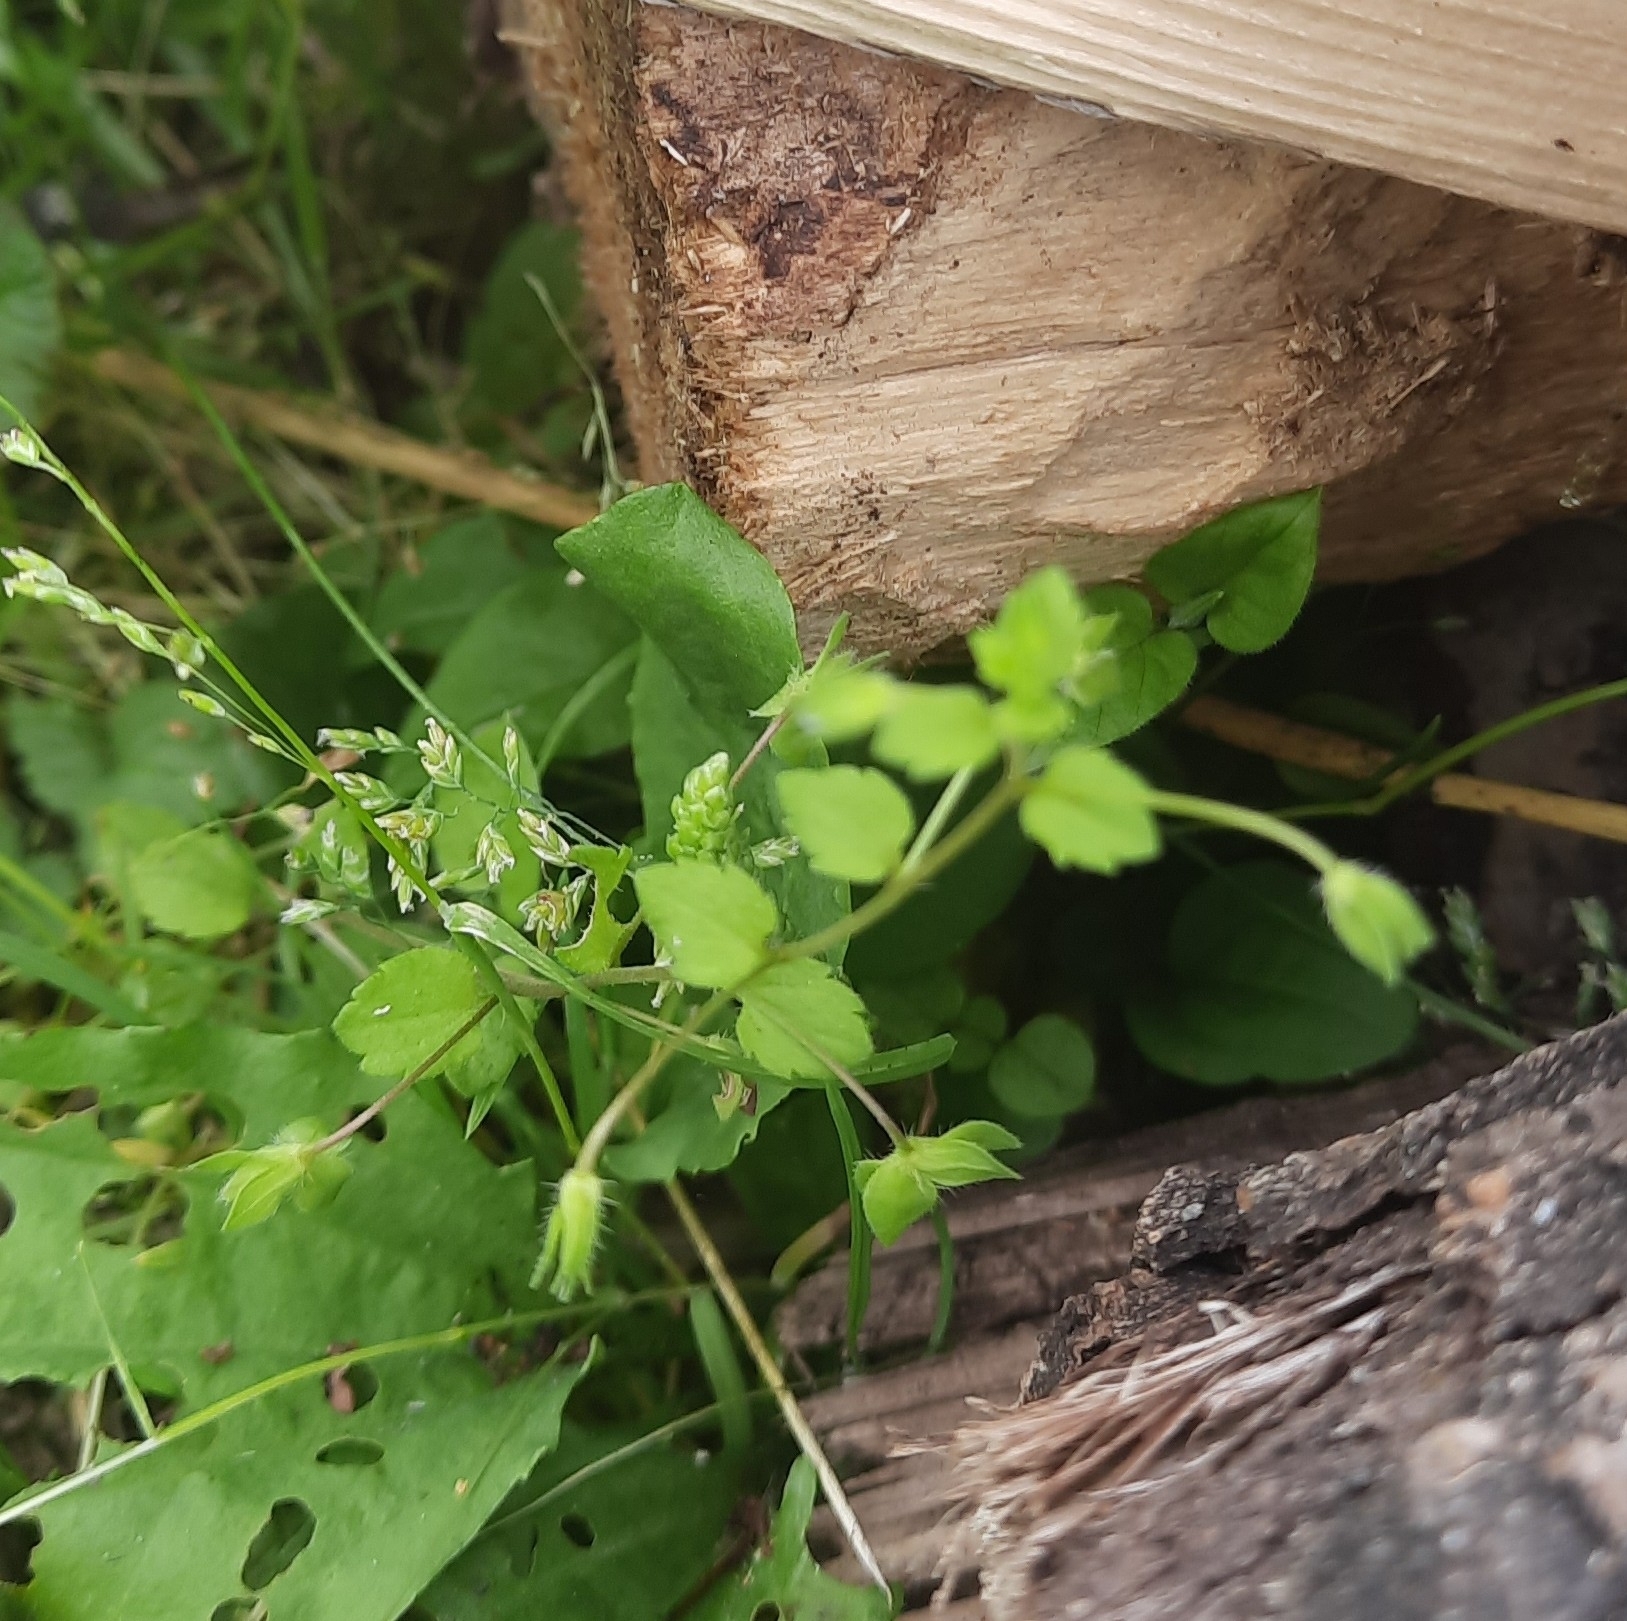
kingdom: Plantae
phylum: Tracheophyta
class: Magnoliopsida
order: Lamiales
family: Plantaginaceae
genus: Veronica
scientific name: Veronica persica
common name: Common field-speedwell
